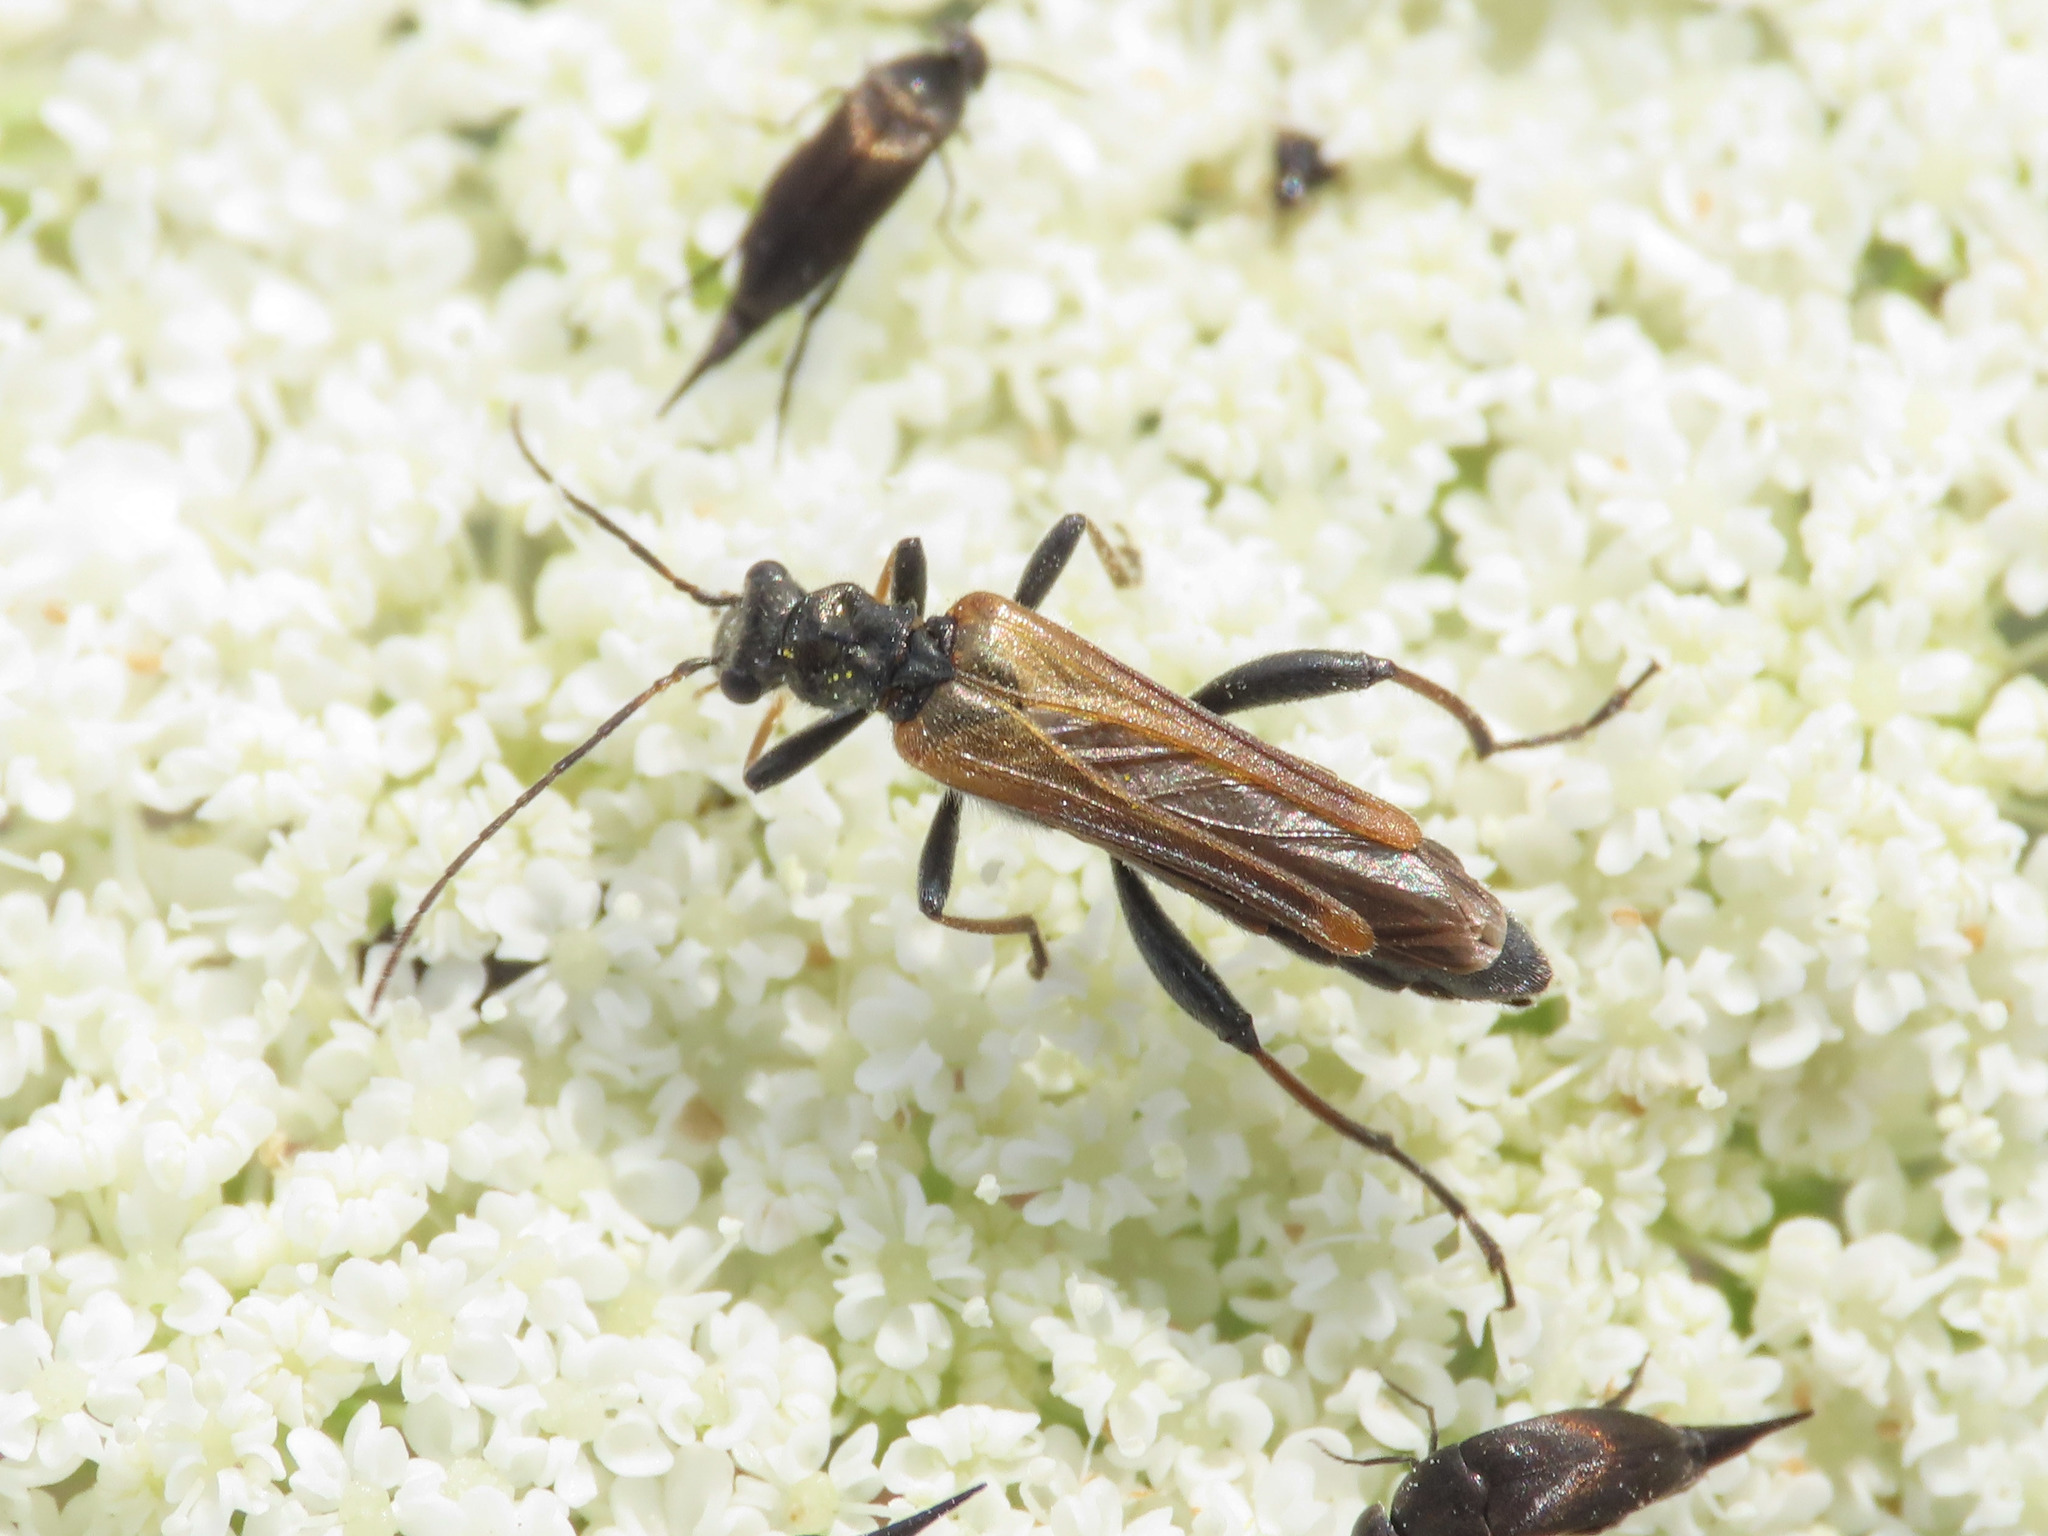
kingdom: Animalia
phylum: Arthropoda
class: Insecta
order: Coleoptera
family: Oedemeridae
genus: Oedemera
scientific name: Oedemera simplex
